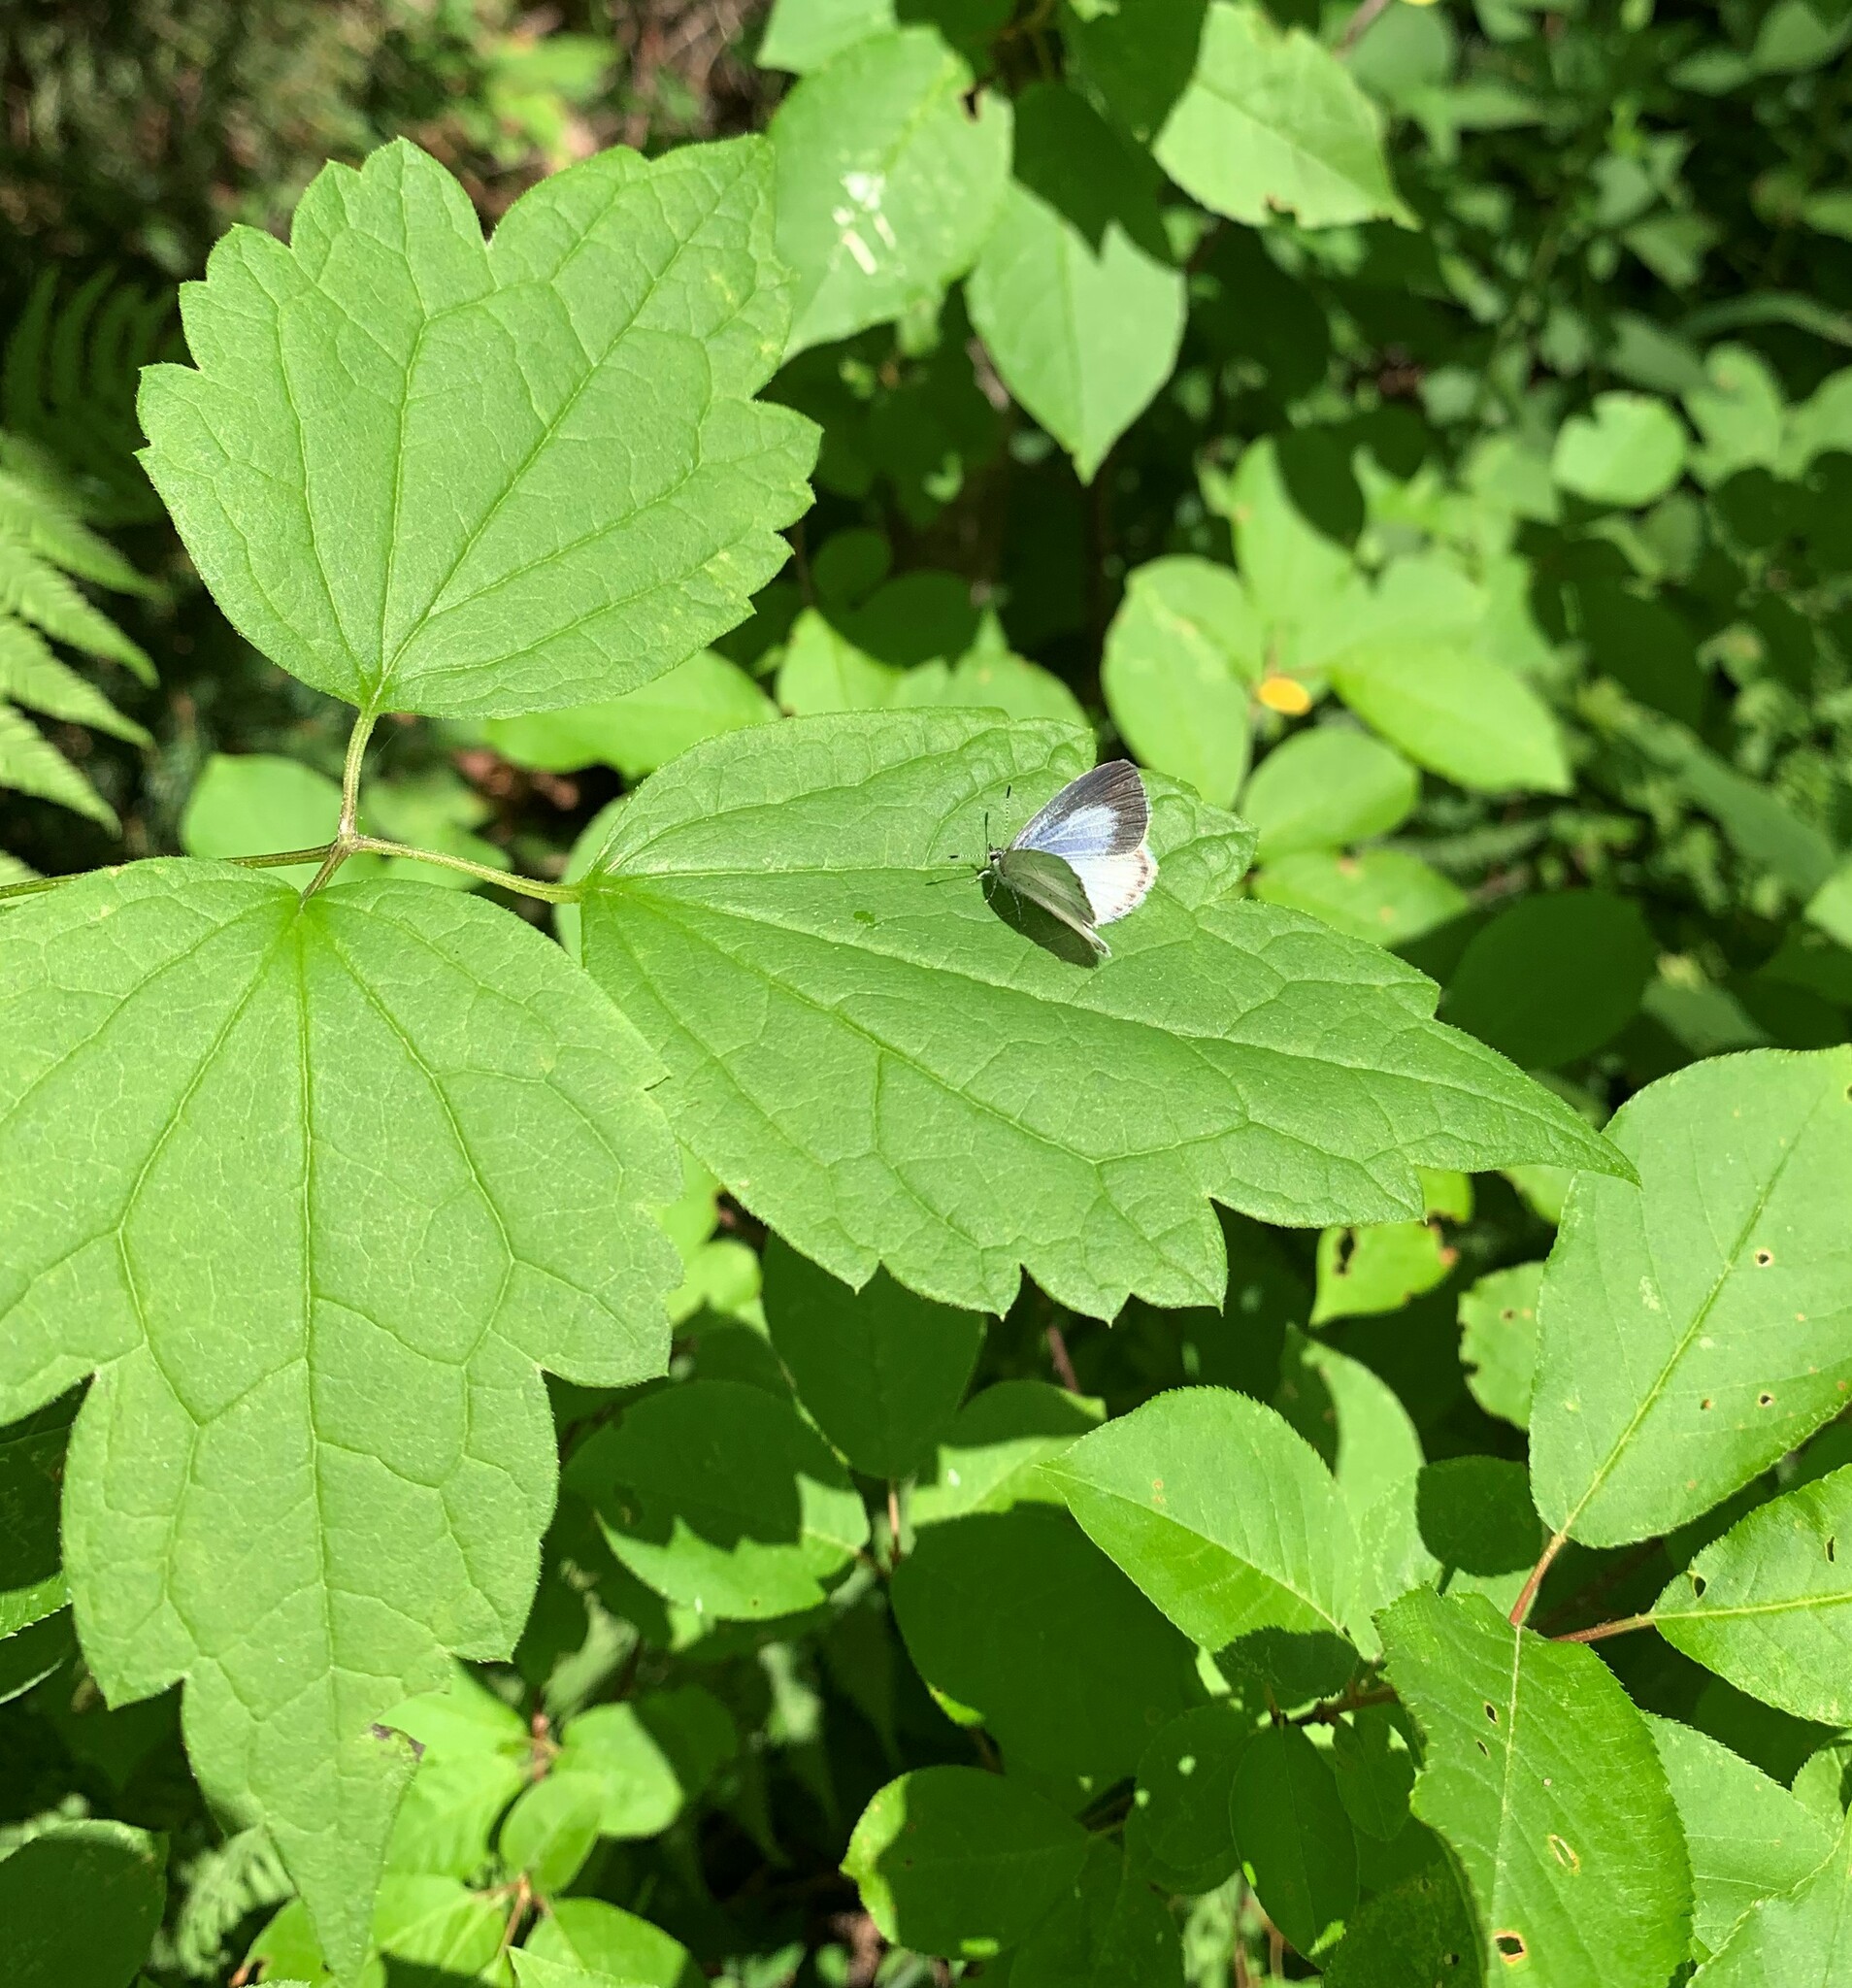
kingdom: Animalia
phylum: Arthropoda
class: Insecta
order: Lepidoptera
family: Lycaenidae
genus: Cyaniris
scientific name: Cyaniris neglecta
